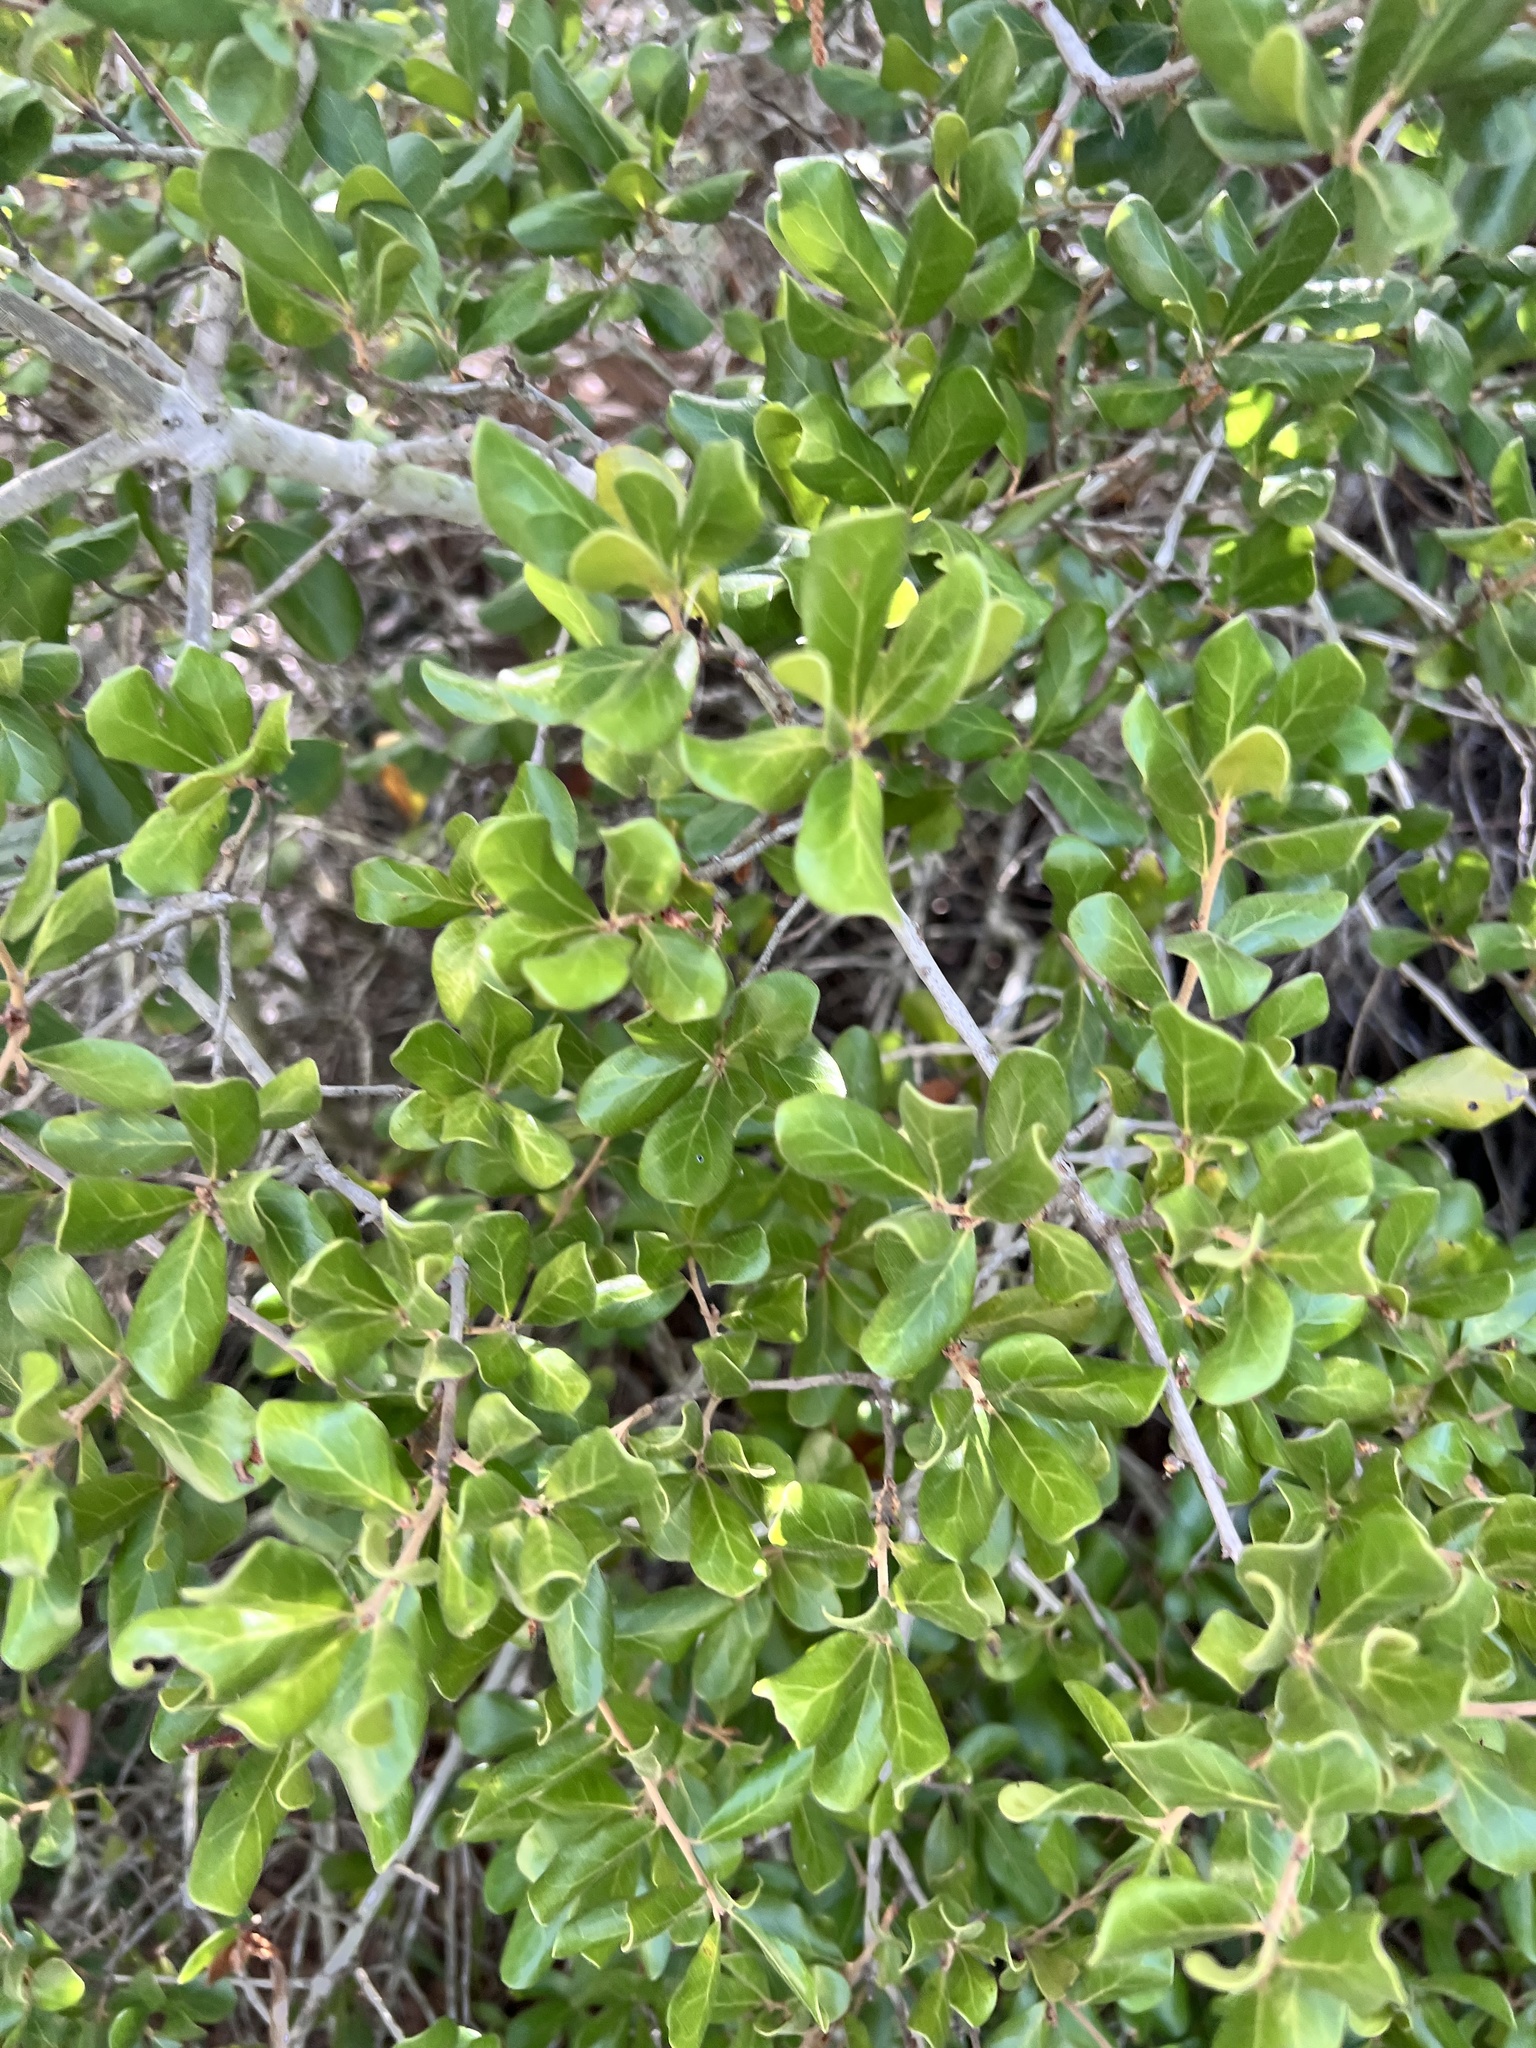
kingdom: Plantae
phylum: Tracheophyta
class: Magnoliopsida
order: Fagales
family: Fagaceae
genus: Quercus
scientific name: Quercus myrtifolia
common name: Myrtle oak
